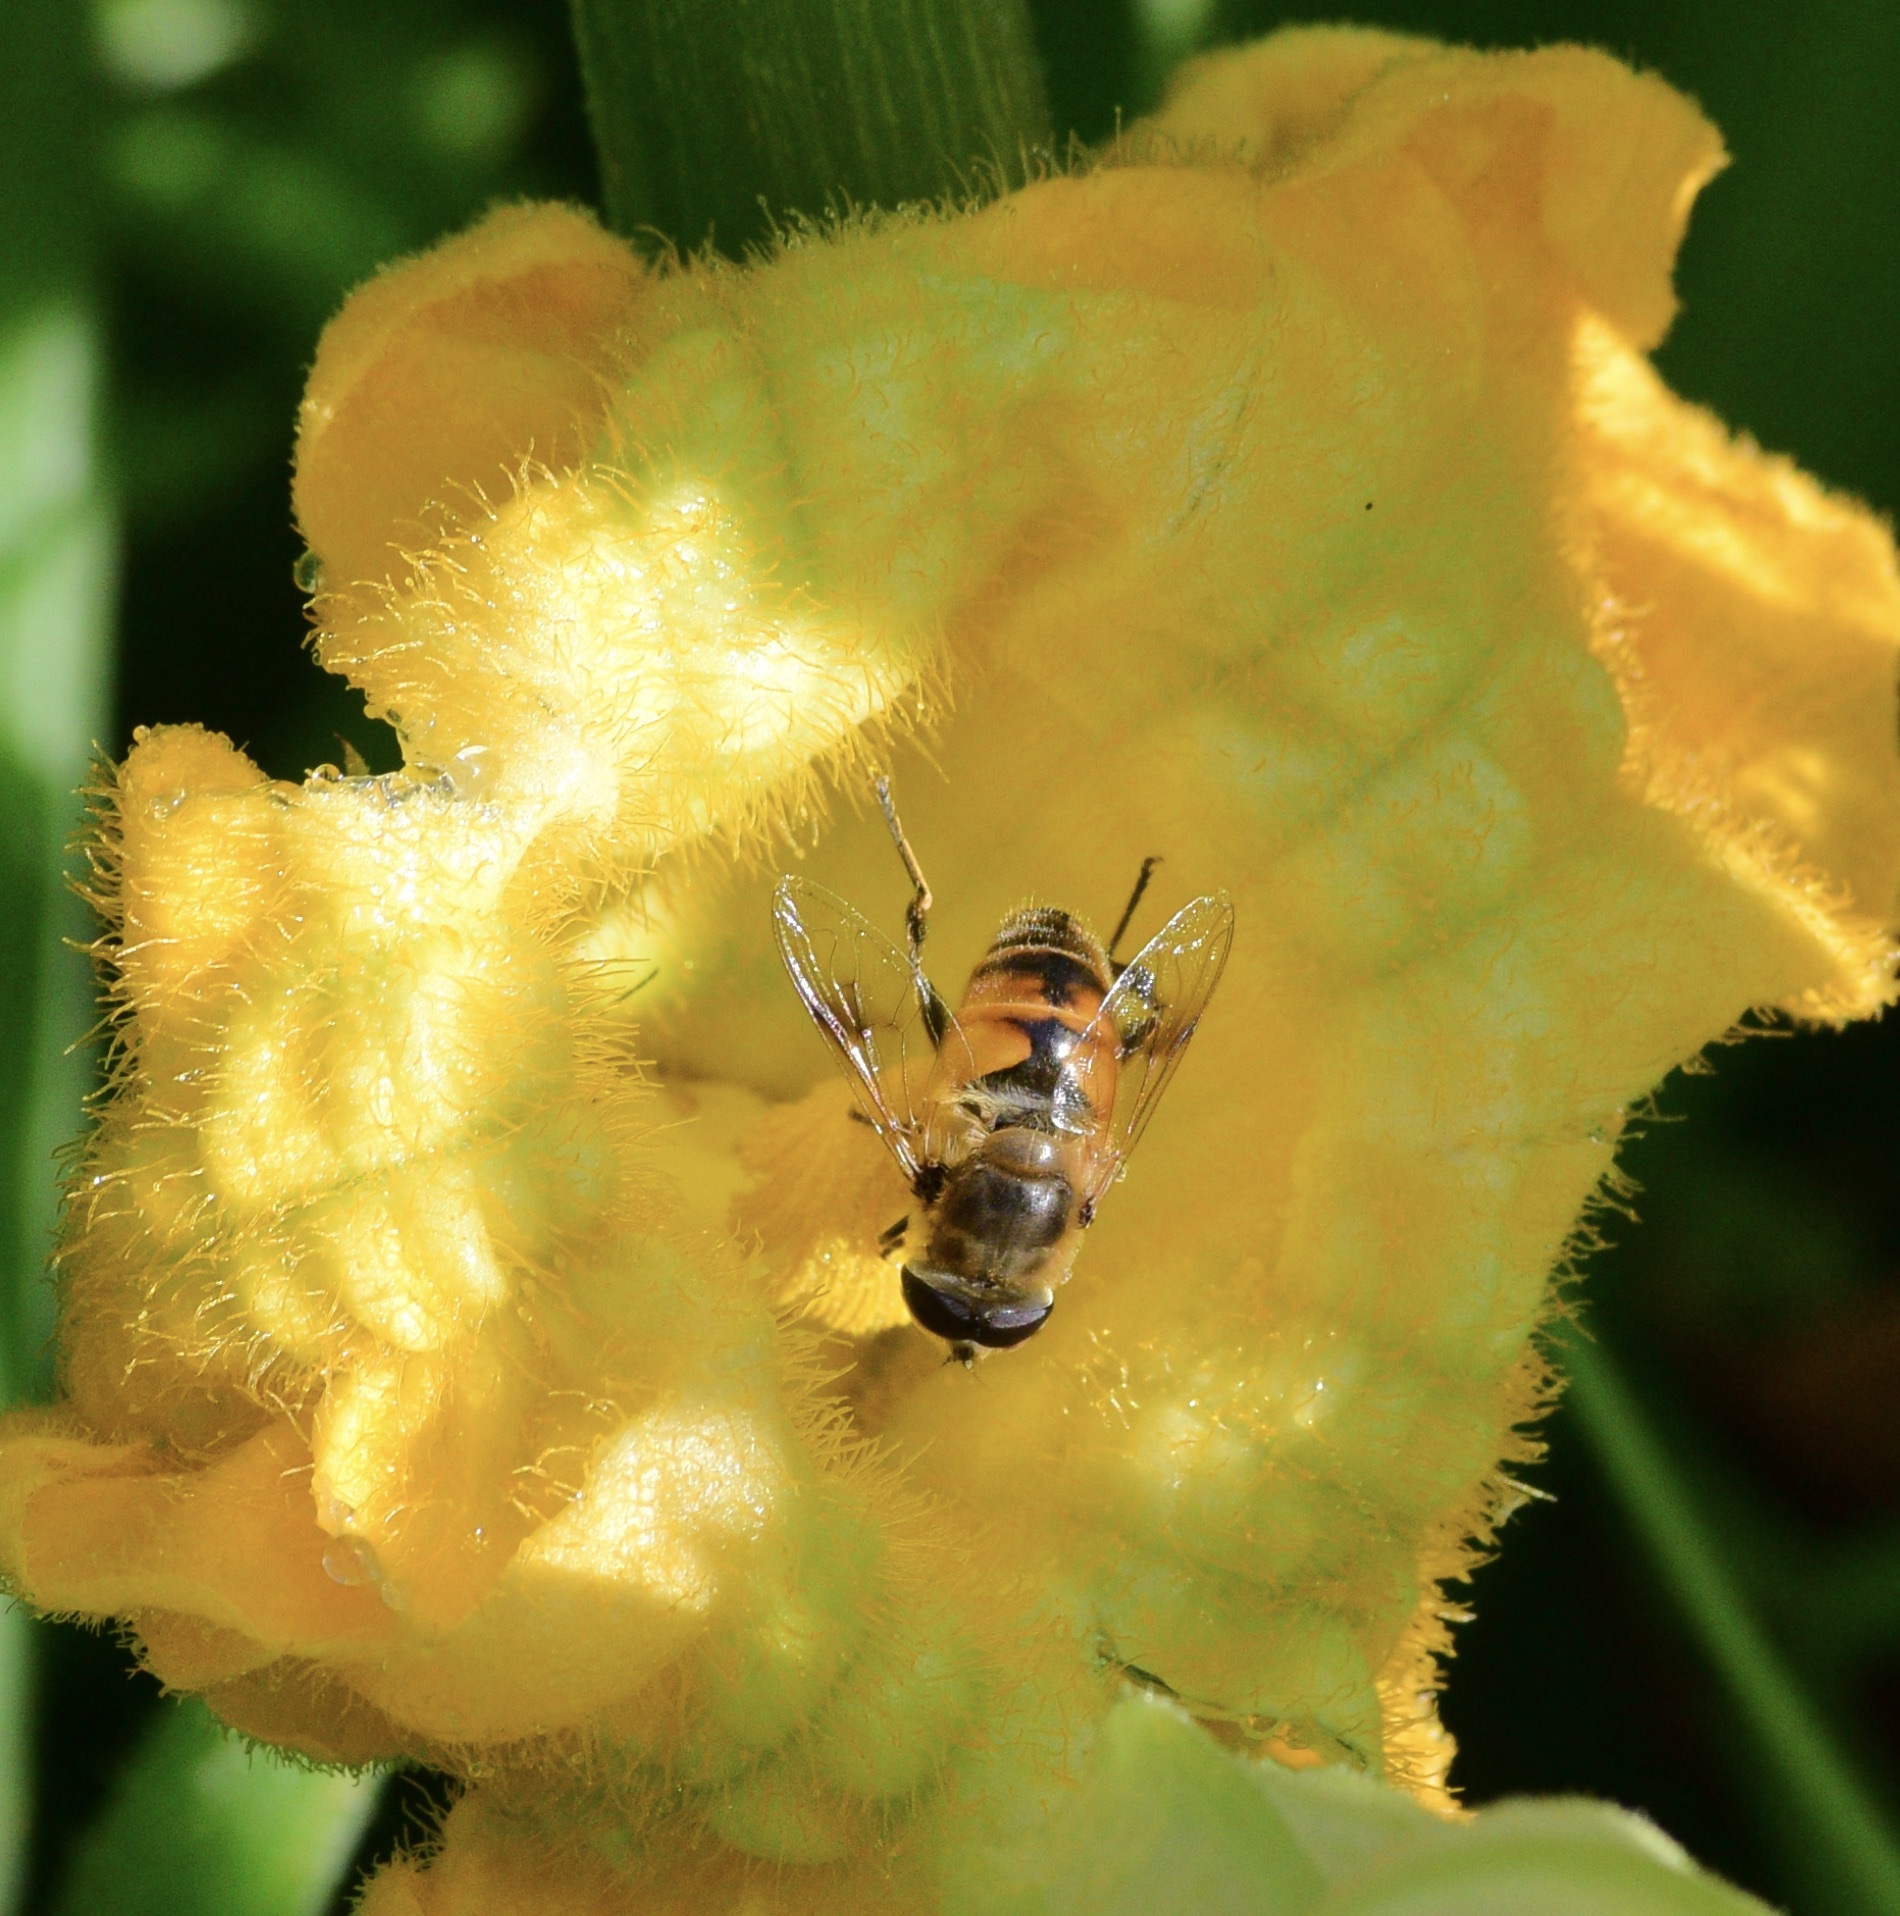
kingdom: Animalia
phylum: Arthropoda
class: Insecta
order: Diptera
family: Syrphidae
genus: Eristalis
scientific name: Eristalis tenax
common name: Drone fly
